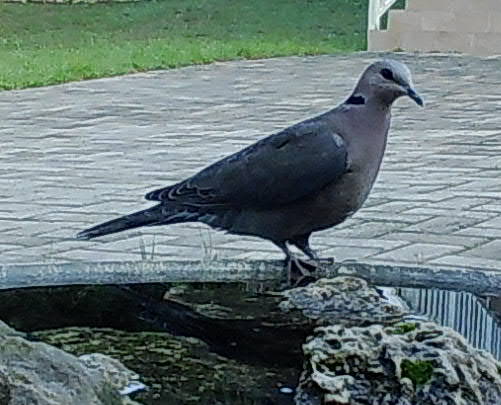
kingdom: Animalia
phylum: Chordata
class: Aves
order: Columbiformes
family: Columbidae
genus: Streptopelia
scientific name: Streptopelia semitorquata
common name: Red-eyed dove
